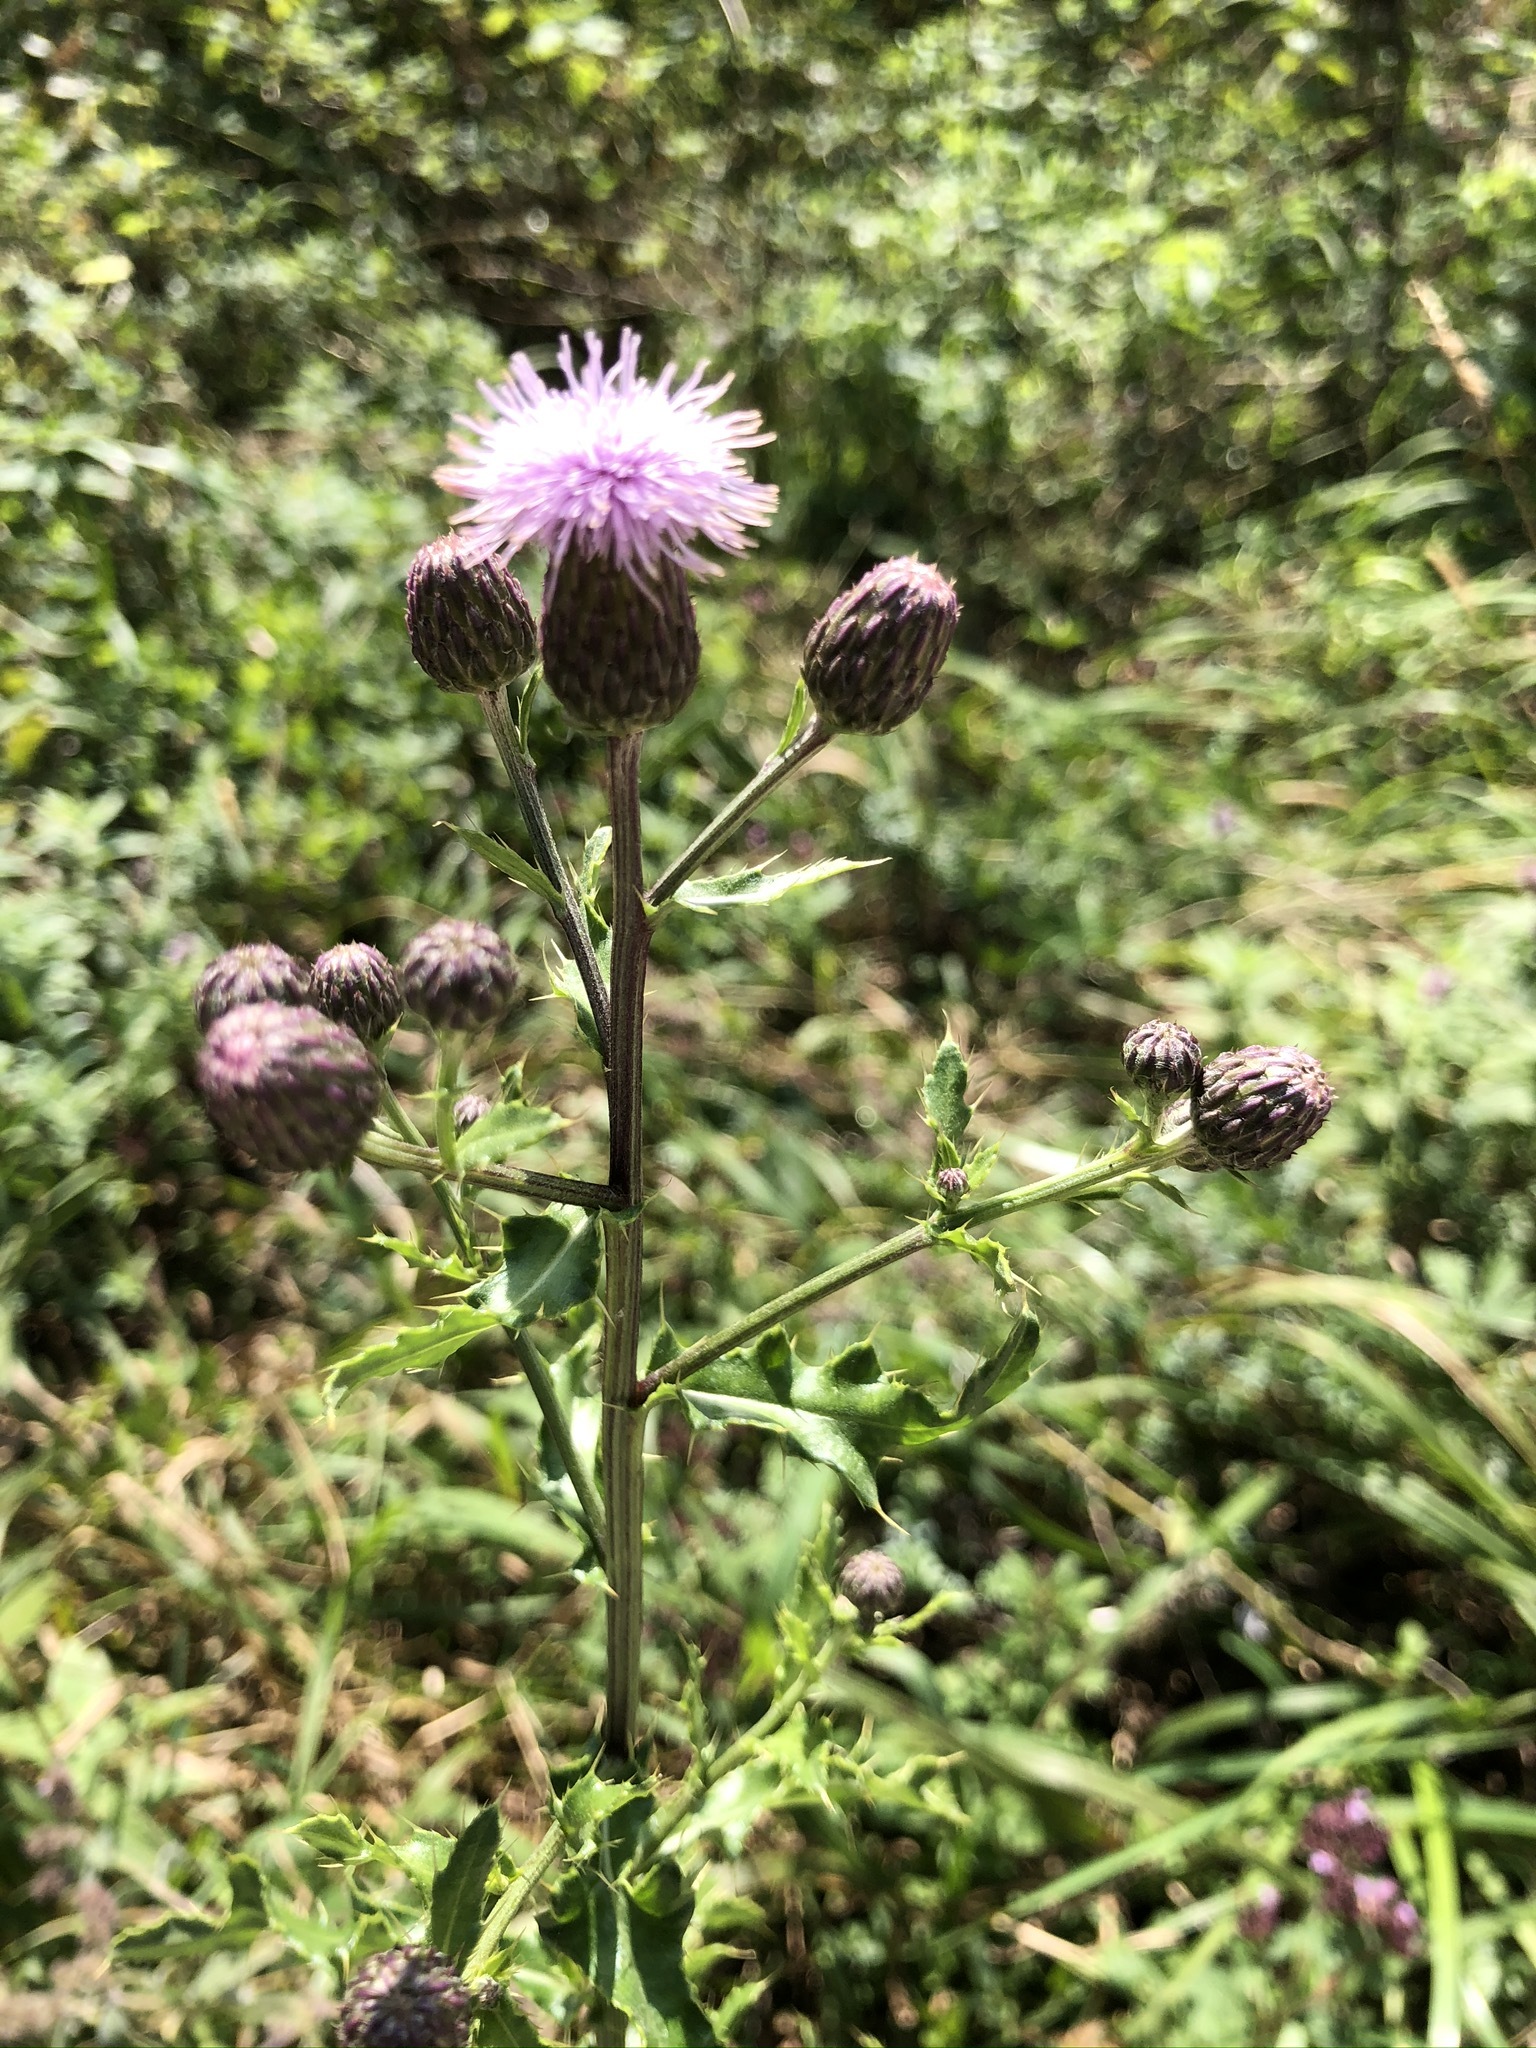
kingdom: Plantae
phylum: Tracheophyta
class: Magnoliopsida
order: Asterales
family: Asteraceae
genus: Cirsium
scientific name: Cirsium arvense
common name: Creeping thistle
